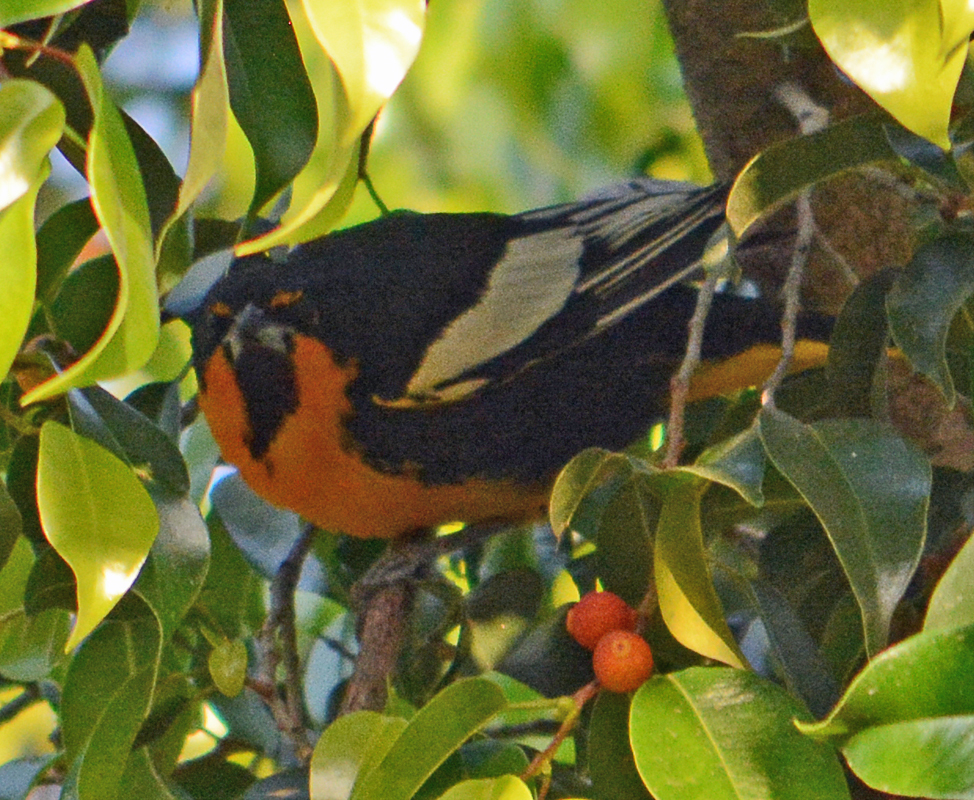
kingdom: Animalia
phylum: Chordata
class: Aves
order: Passeriformes
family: Icteridae
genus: Icterus
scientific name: Icterus abeillei
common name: Black-backed oriole
